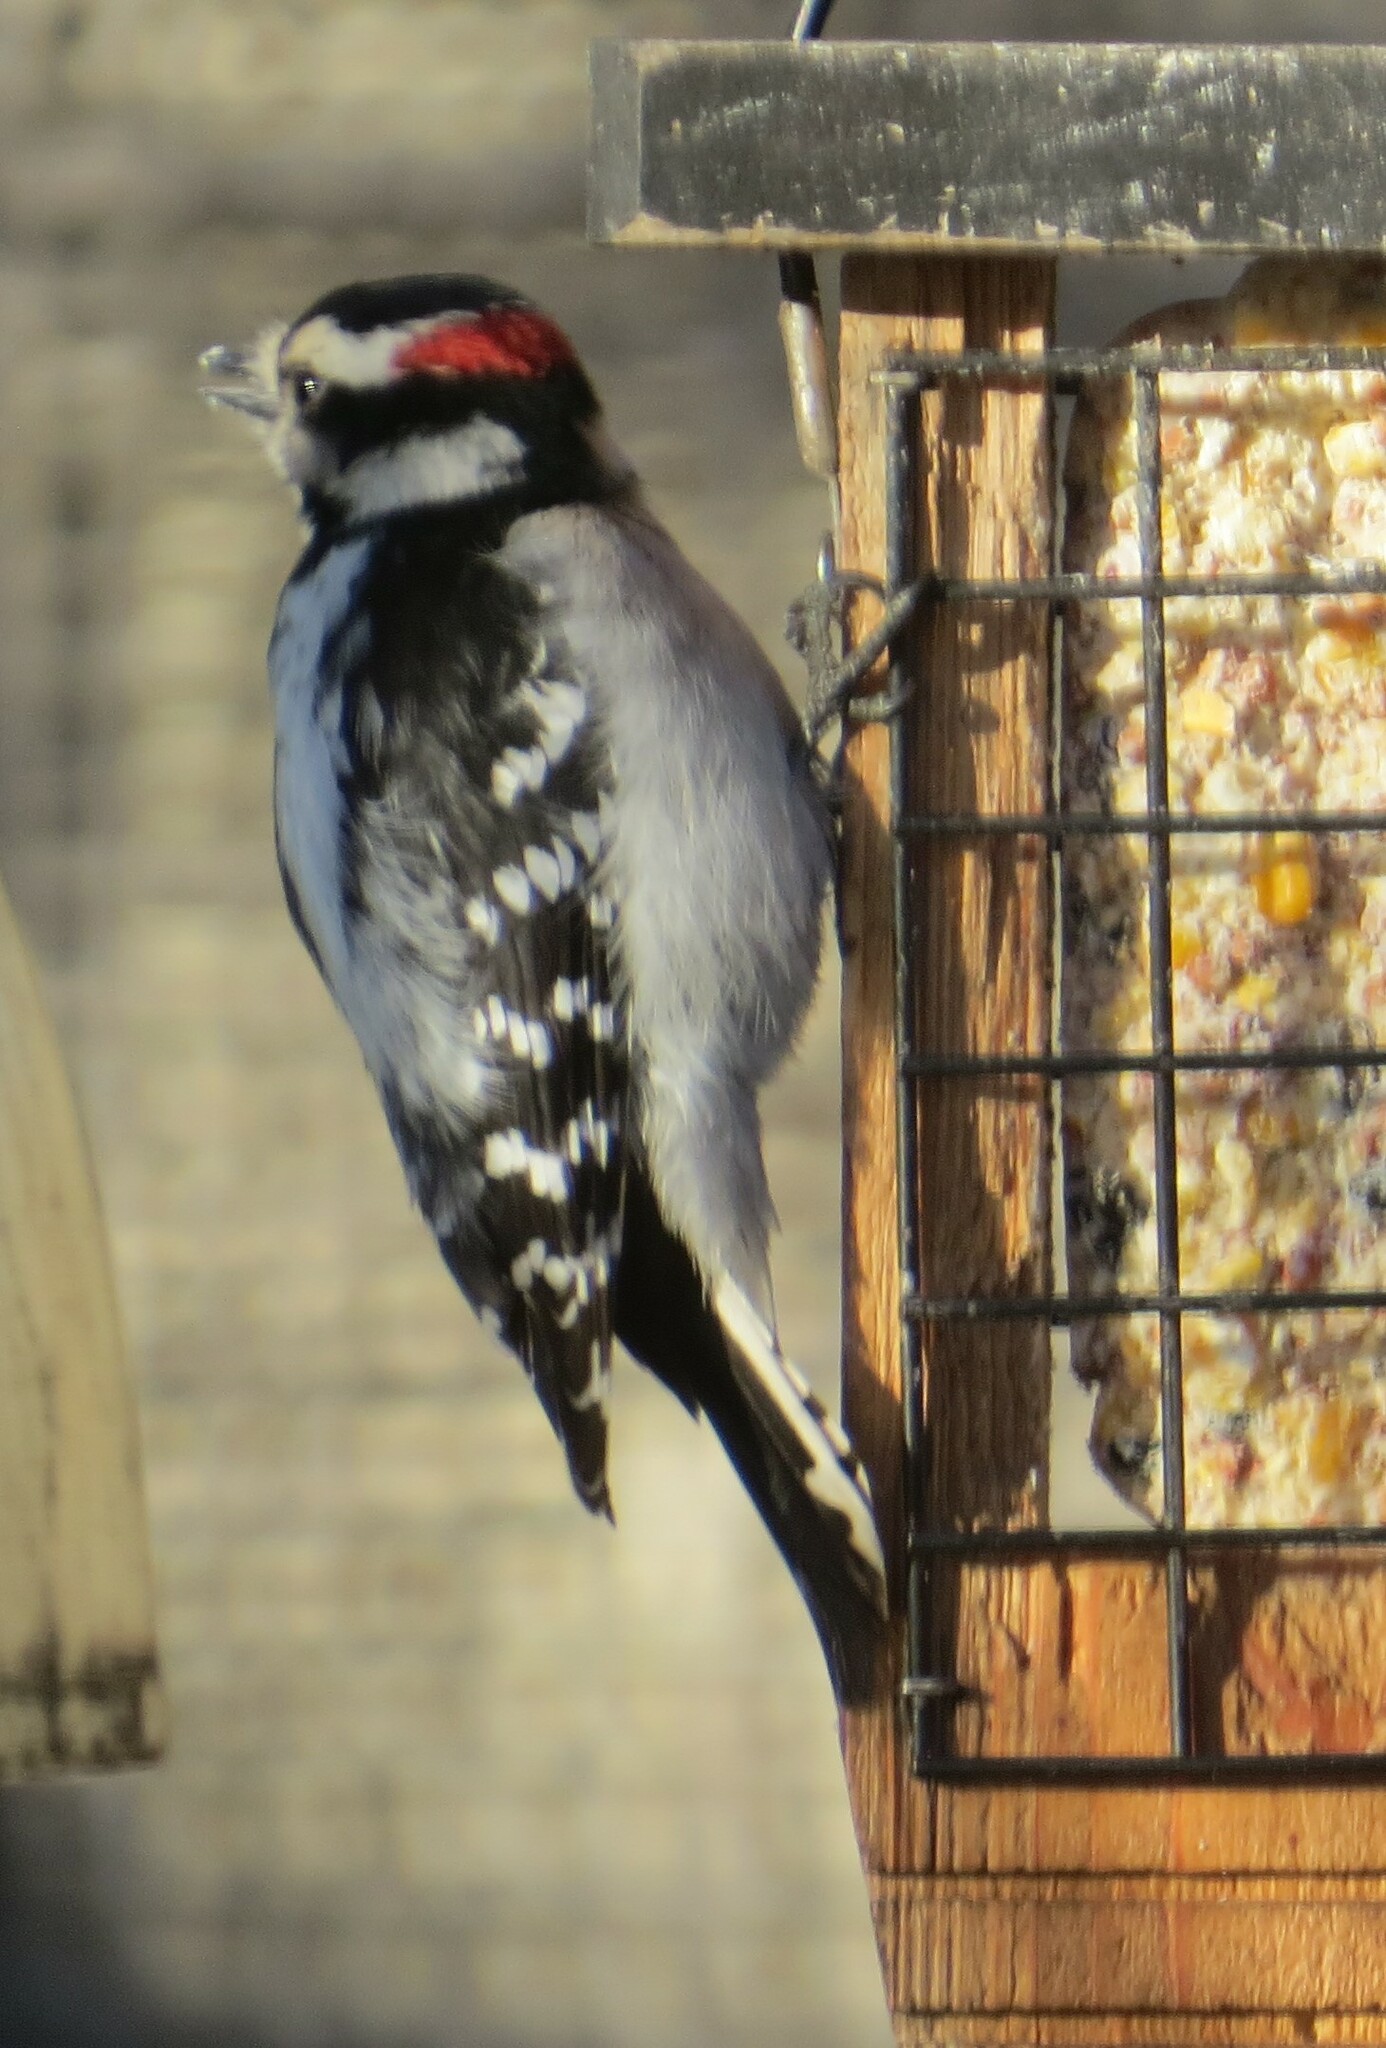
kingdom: Animalia
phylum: Chordata
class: Aves
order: Piciformes
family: Picidae
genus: Dryobates
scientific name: Dryobates pubescens
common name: Downy woodpecker
